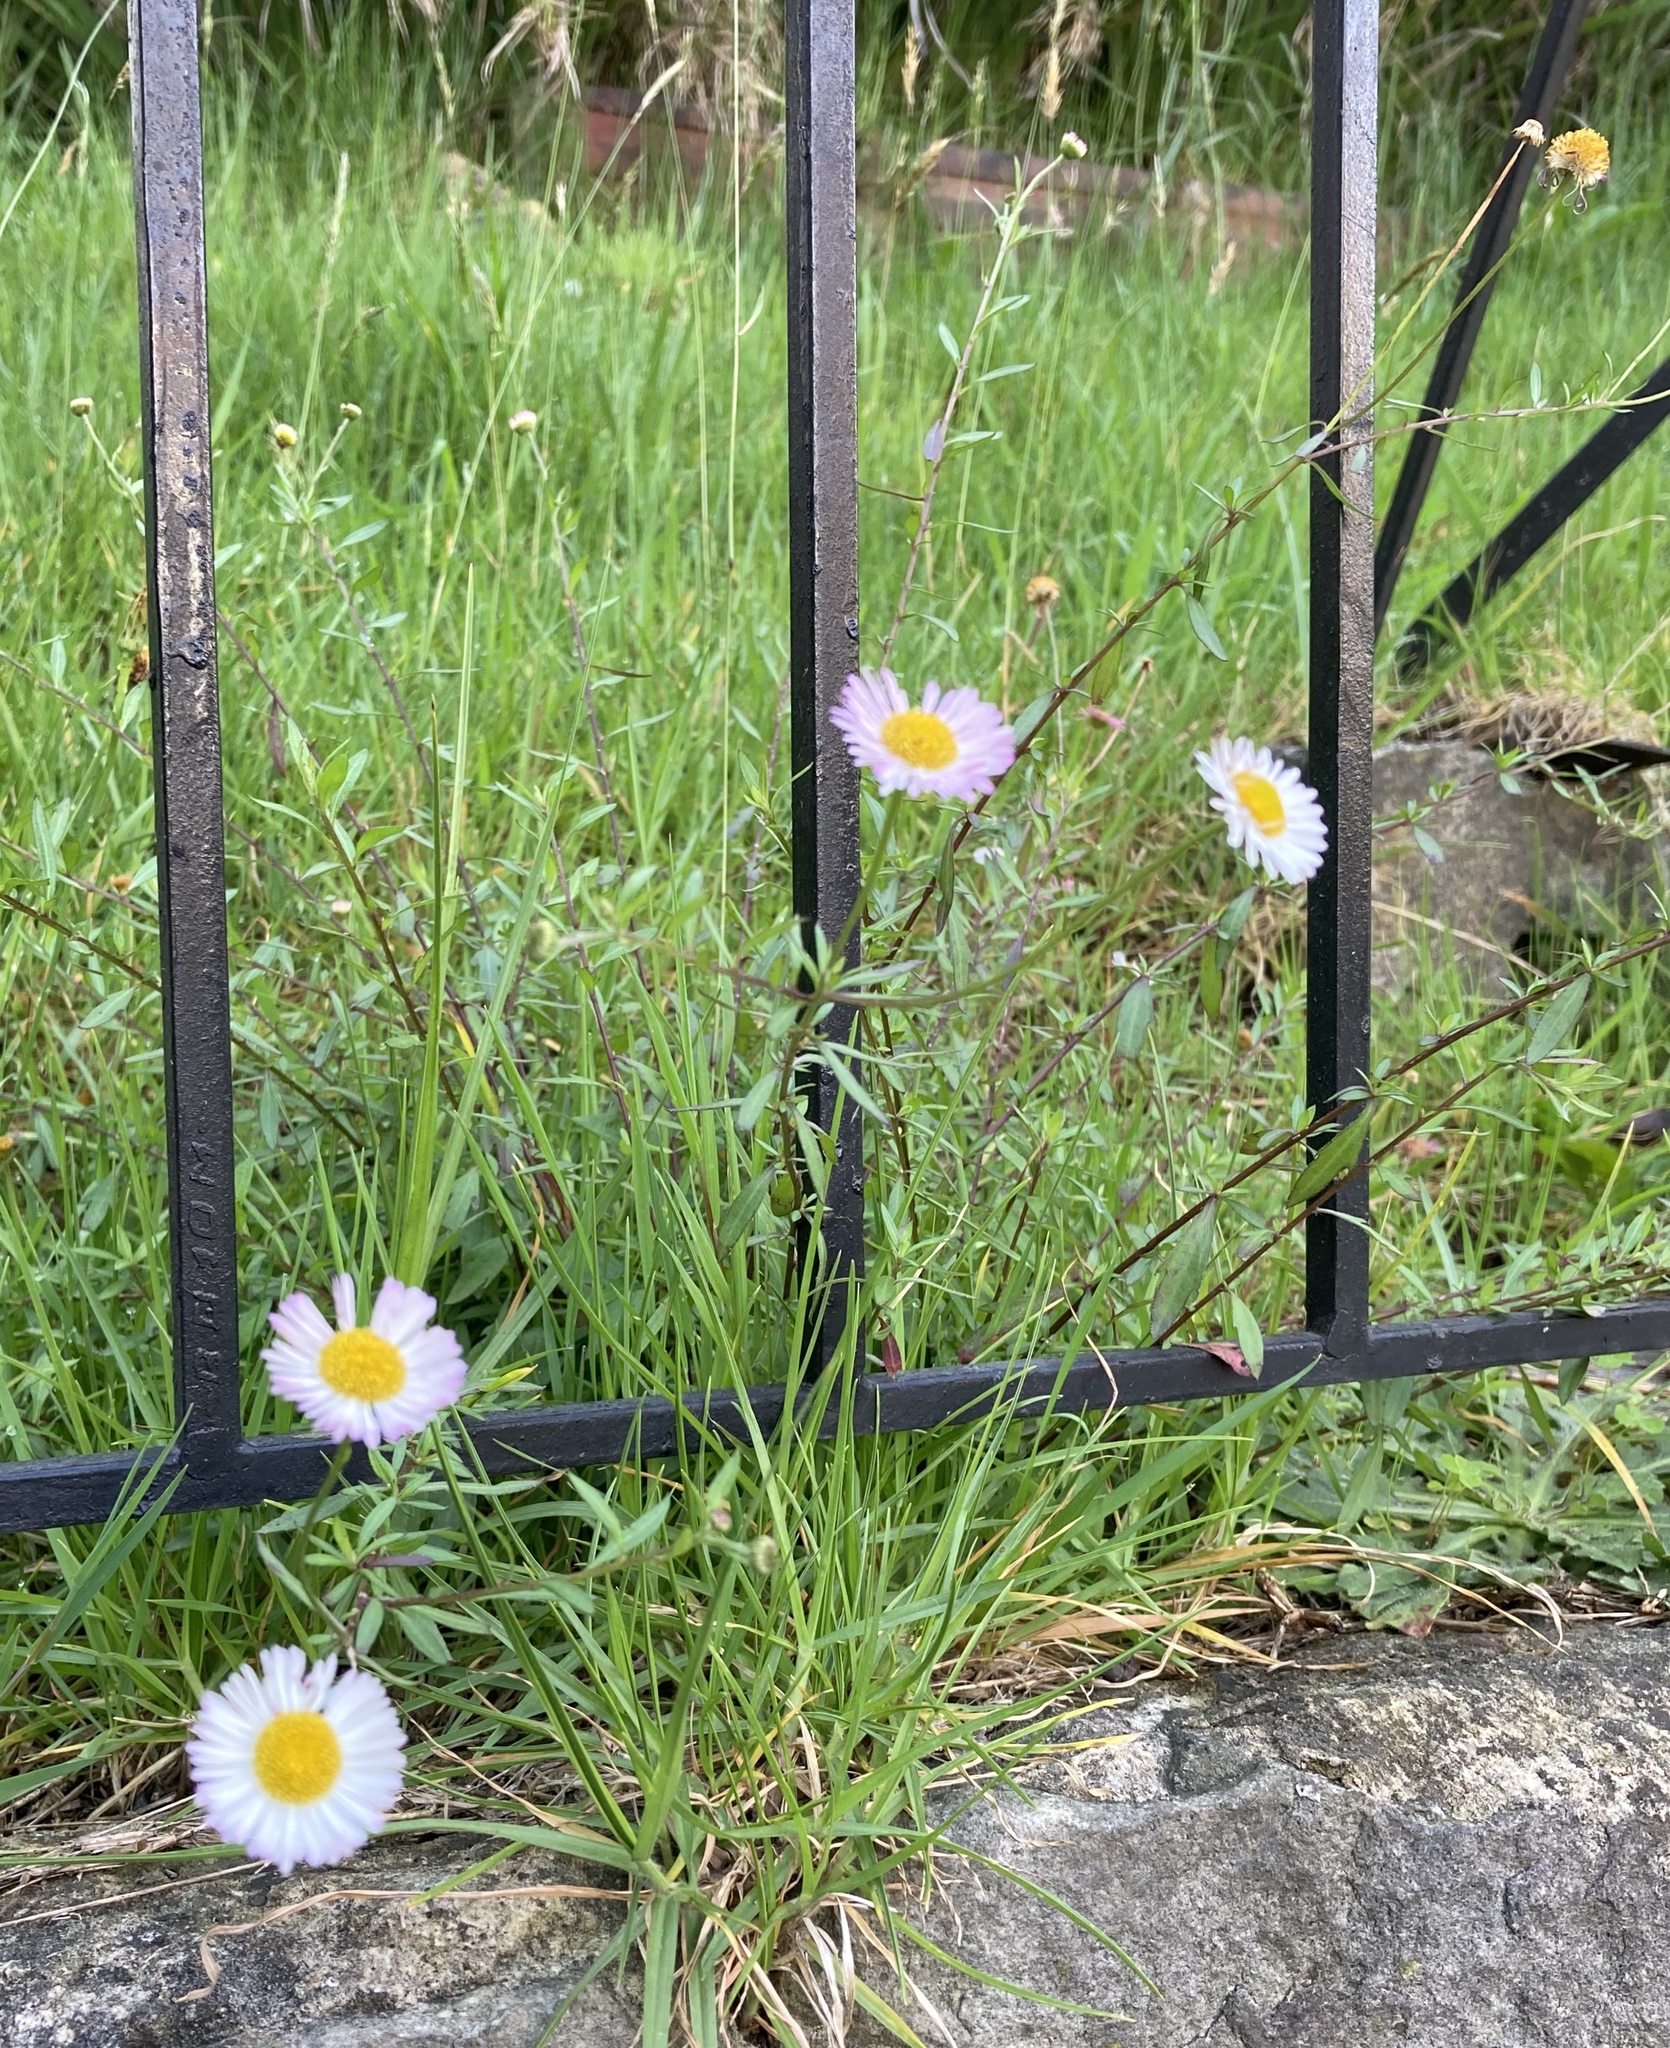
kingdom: Plantae
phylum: Tracheophyta
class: Magnoliopsida
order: Asterales
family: Asteraceae
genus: Erigeron
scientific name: Erigeron karvinskianus
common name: Mexican fleabane
